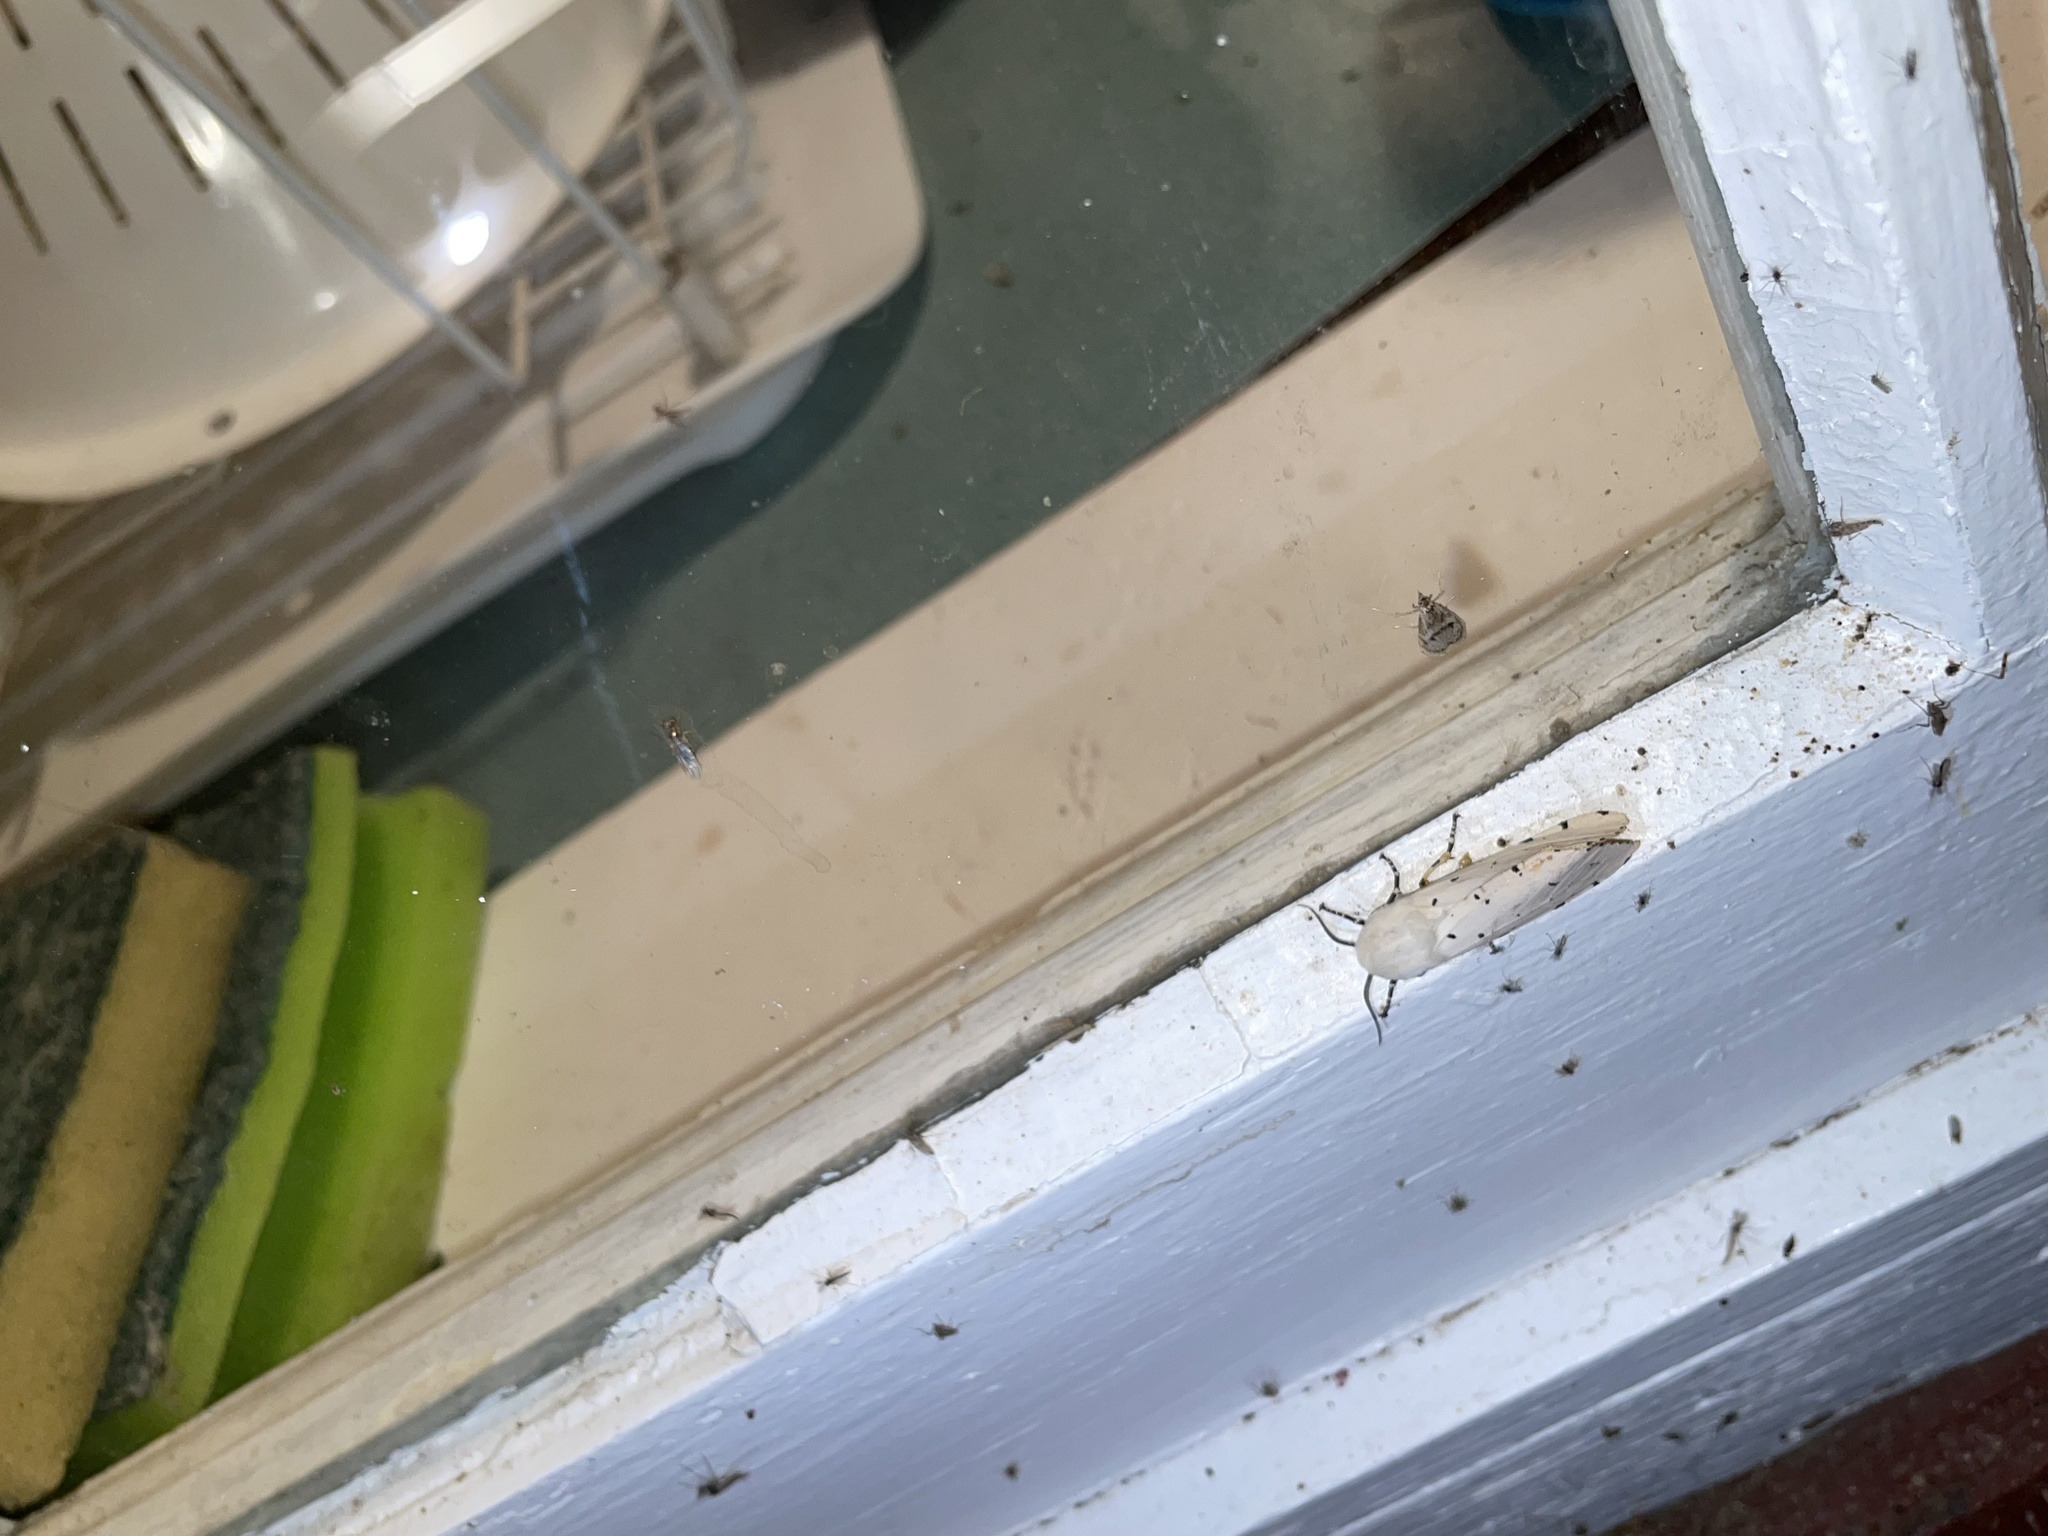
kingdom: Animalia
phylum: Arthropoda
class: Insecta
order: Lepidoptera
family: Erebidae
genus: Estigmene
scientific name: Estigmene acrea
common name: Salt marsh moth
